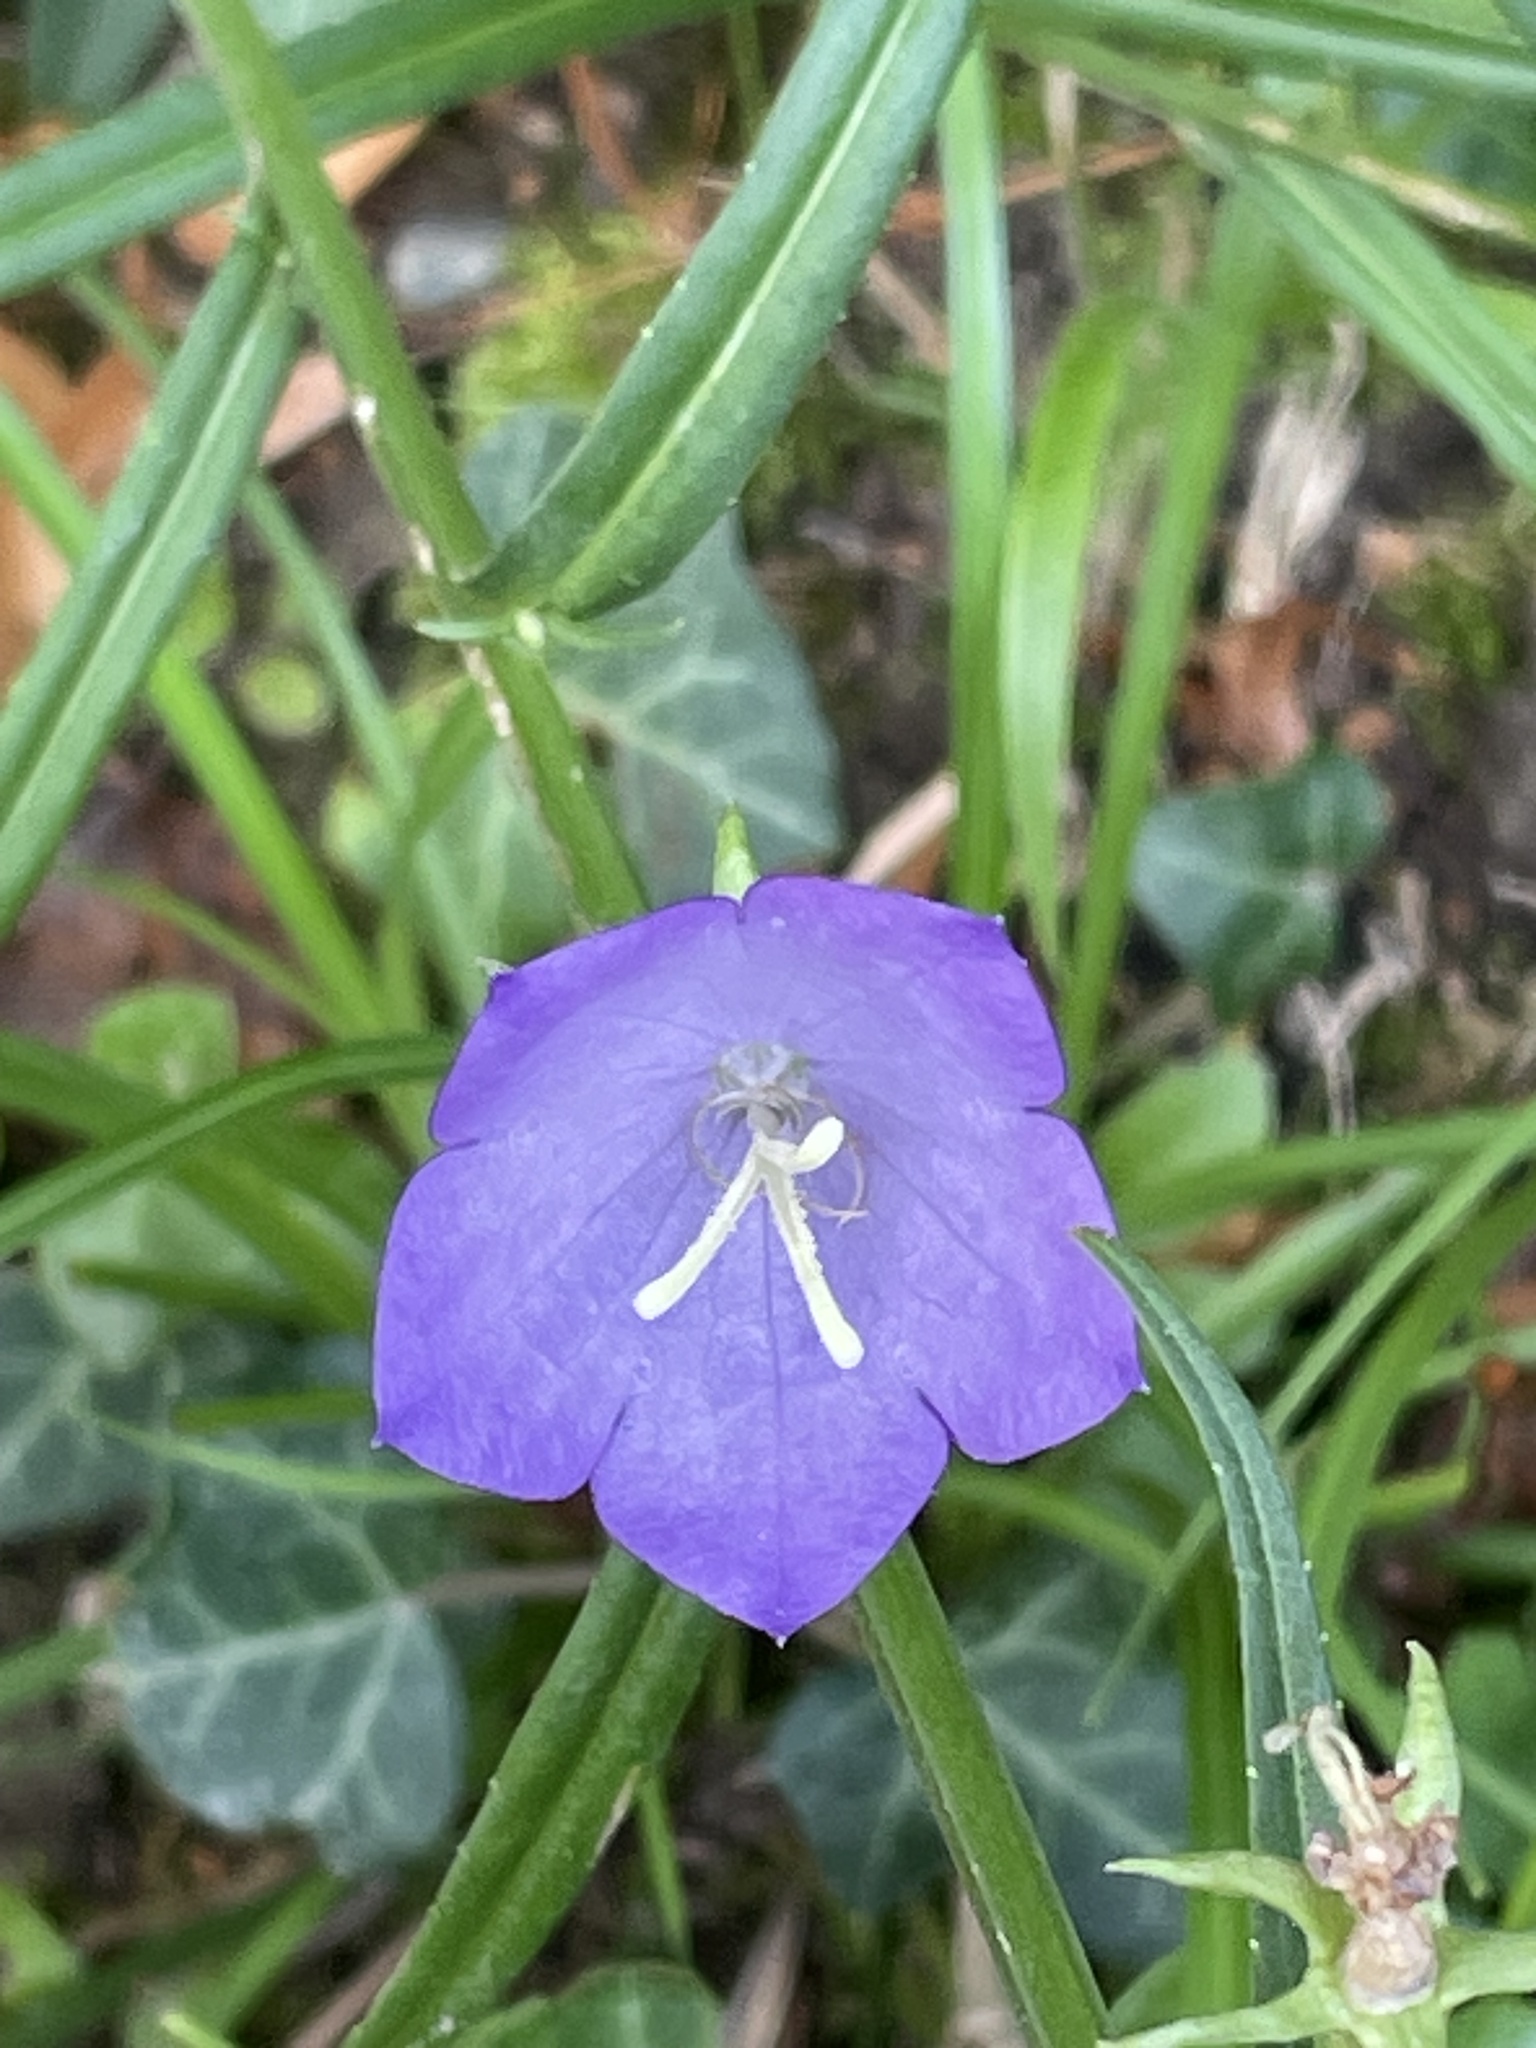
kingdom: Plantae
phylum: Tracheophyta
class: Magnoliopsida
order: Asterales
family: Campanulaceae
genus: Campanula
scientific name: Campanula persicifolia
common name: Peach-leaved bellflower
